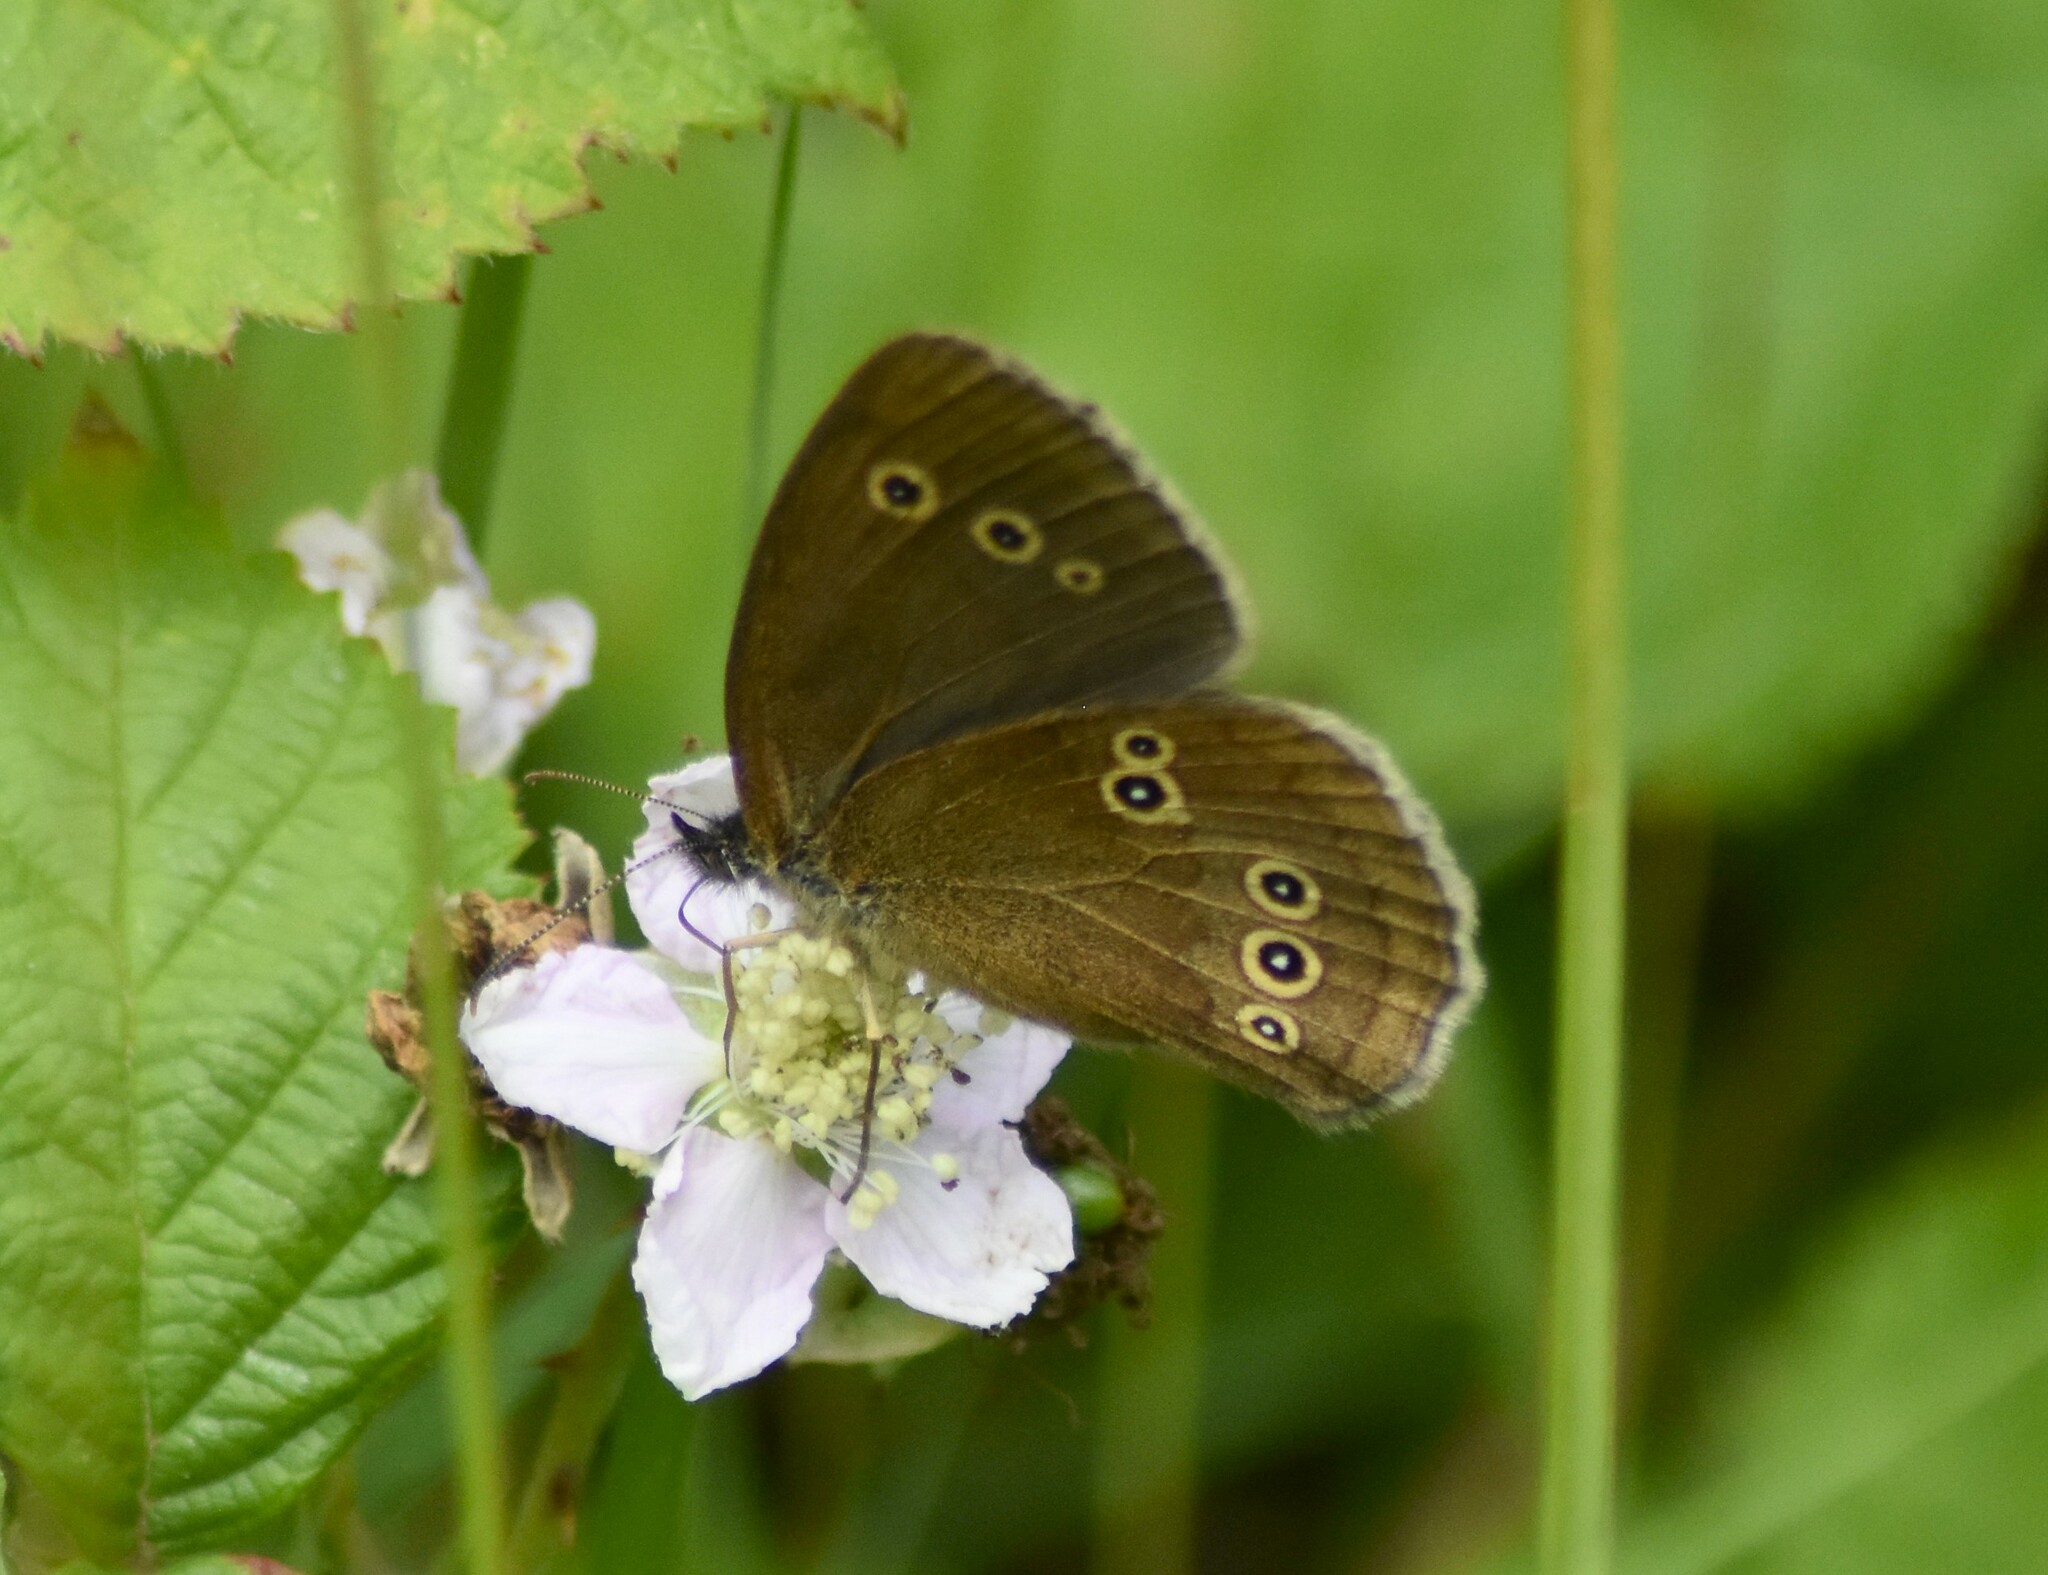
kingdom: Animalia
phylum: Arthropoda
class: Insecta
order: Lepidoptera
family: Nymphalidae
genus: Aphantopus
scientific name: Aphantopus hyperantus
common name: Ringlet
